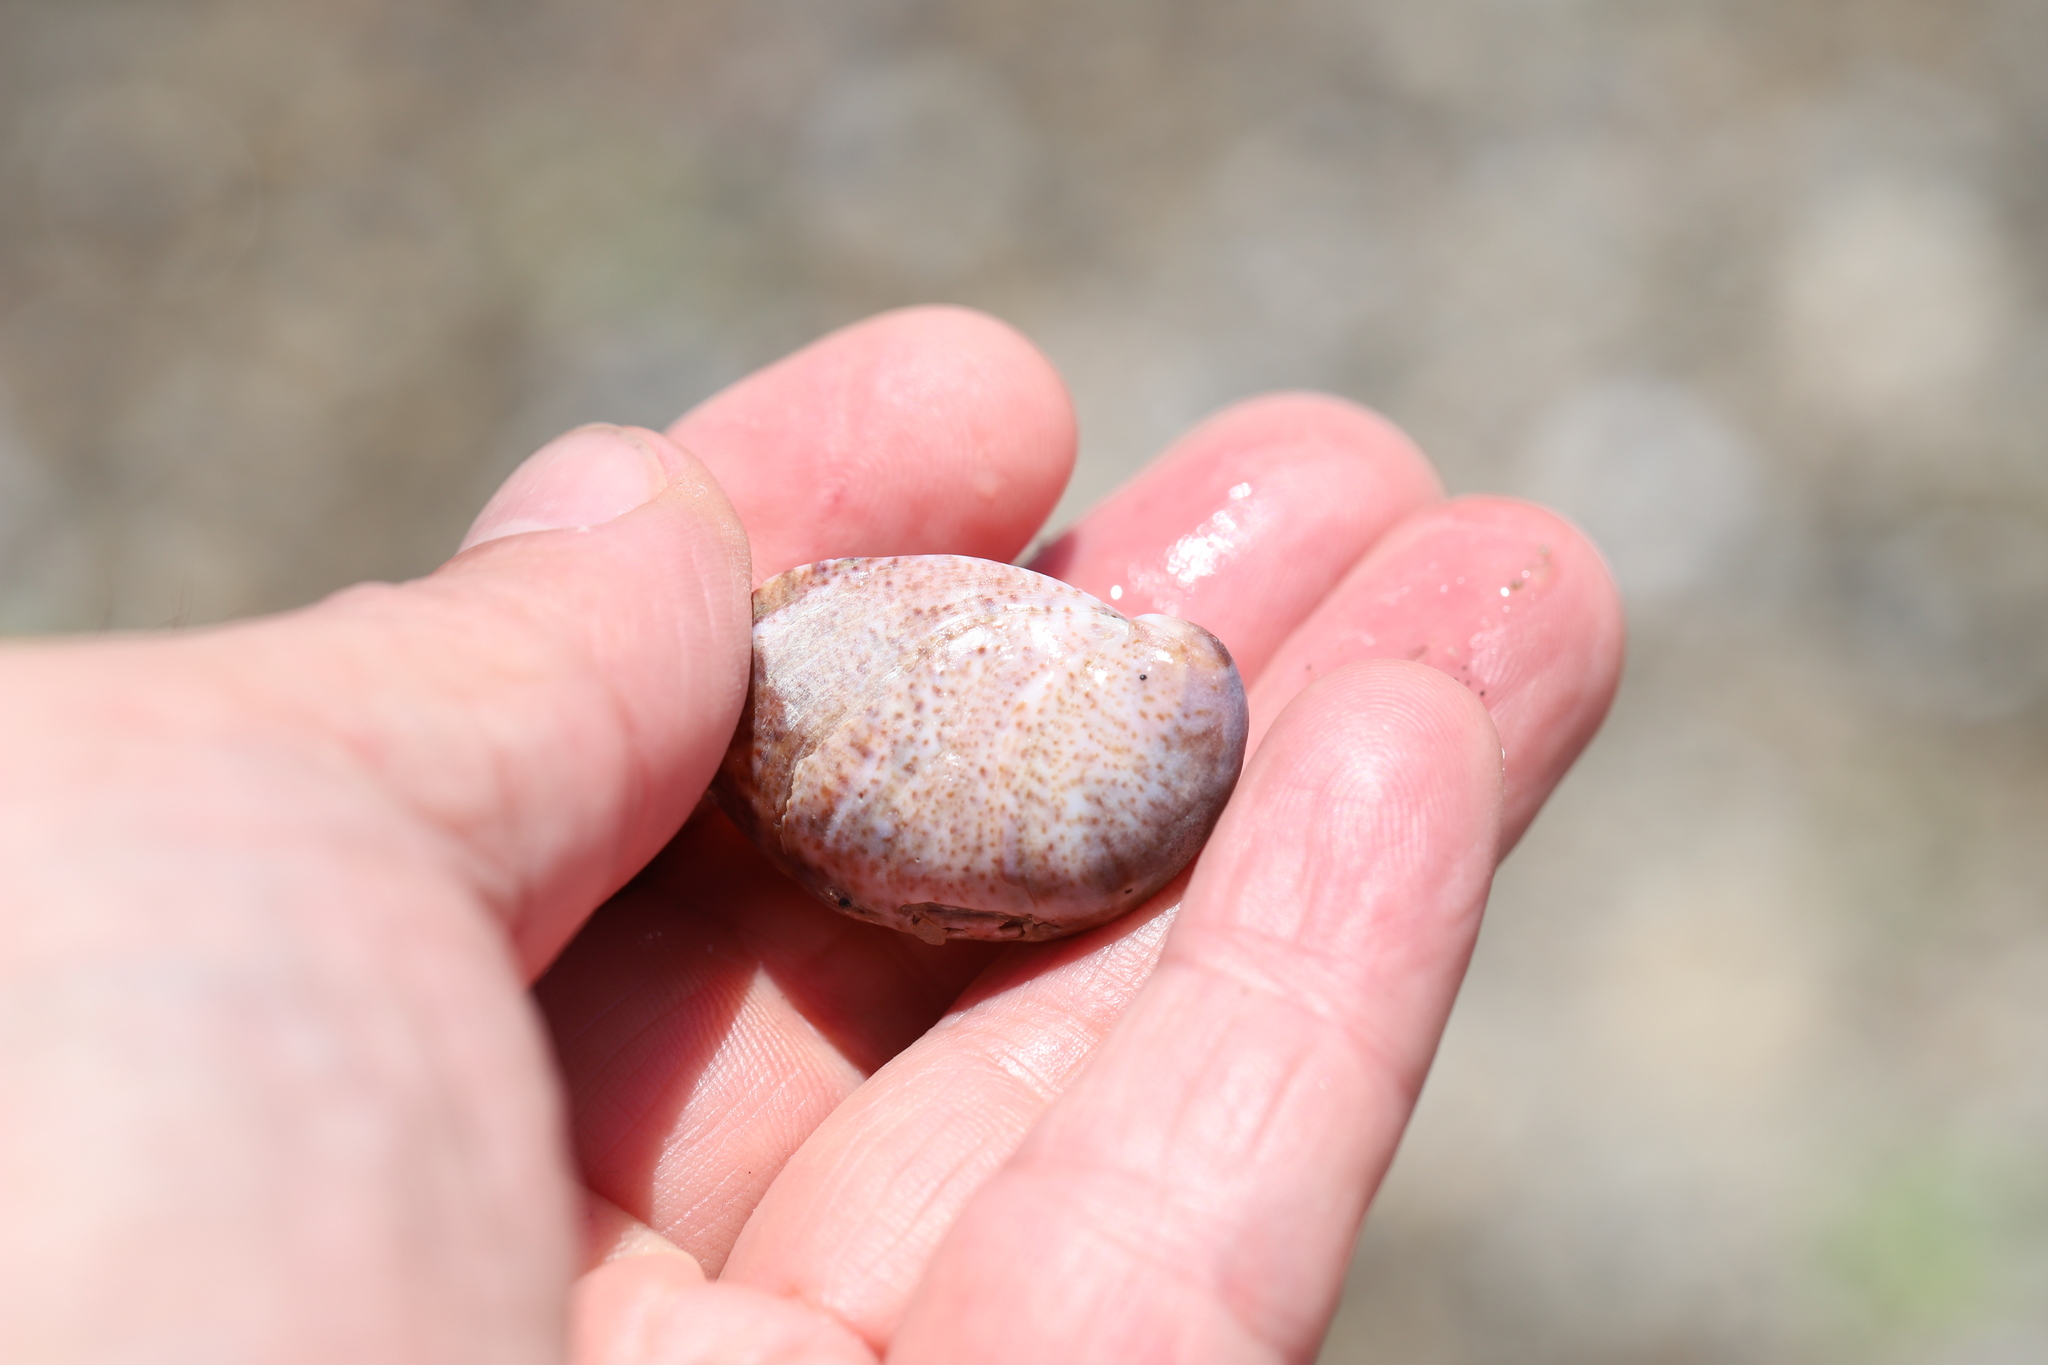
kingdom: Animalia
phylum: Mollusca
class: Gastropoda
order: Littorinimorpha
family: Calyptraeidae
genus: Crepidula
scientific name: Crepidula fornicata
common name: Slipper limpet
